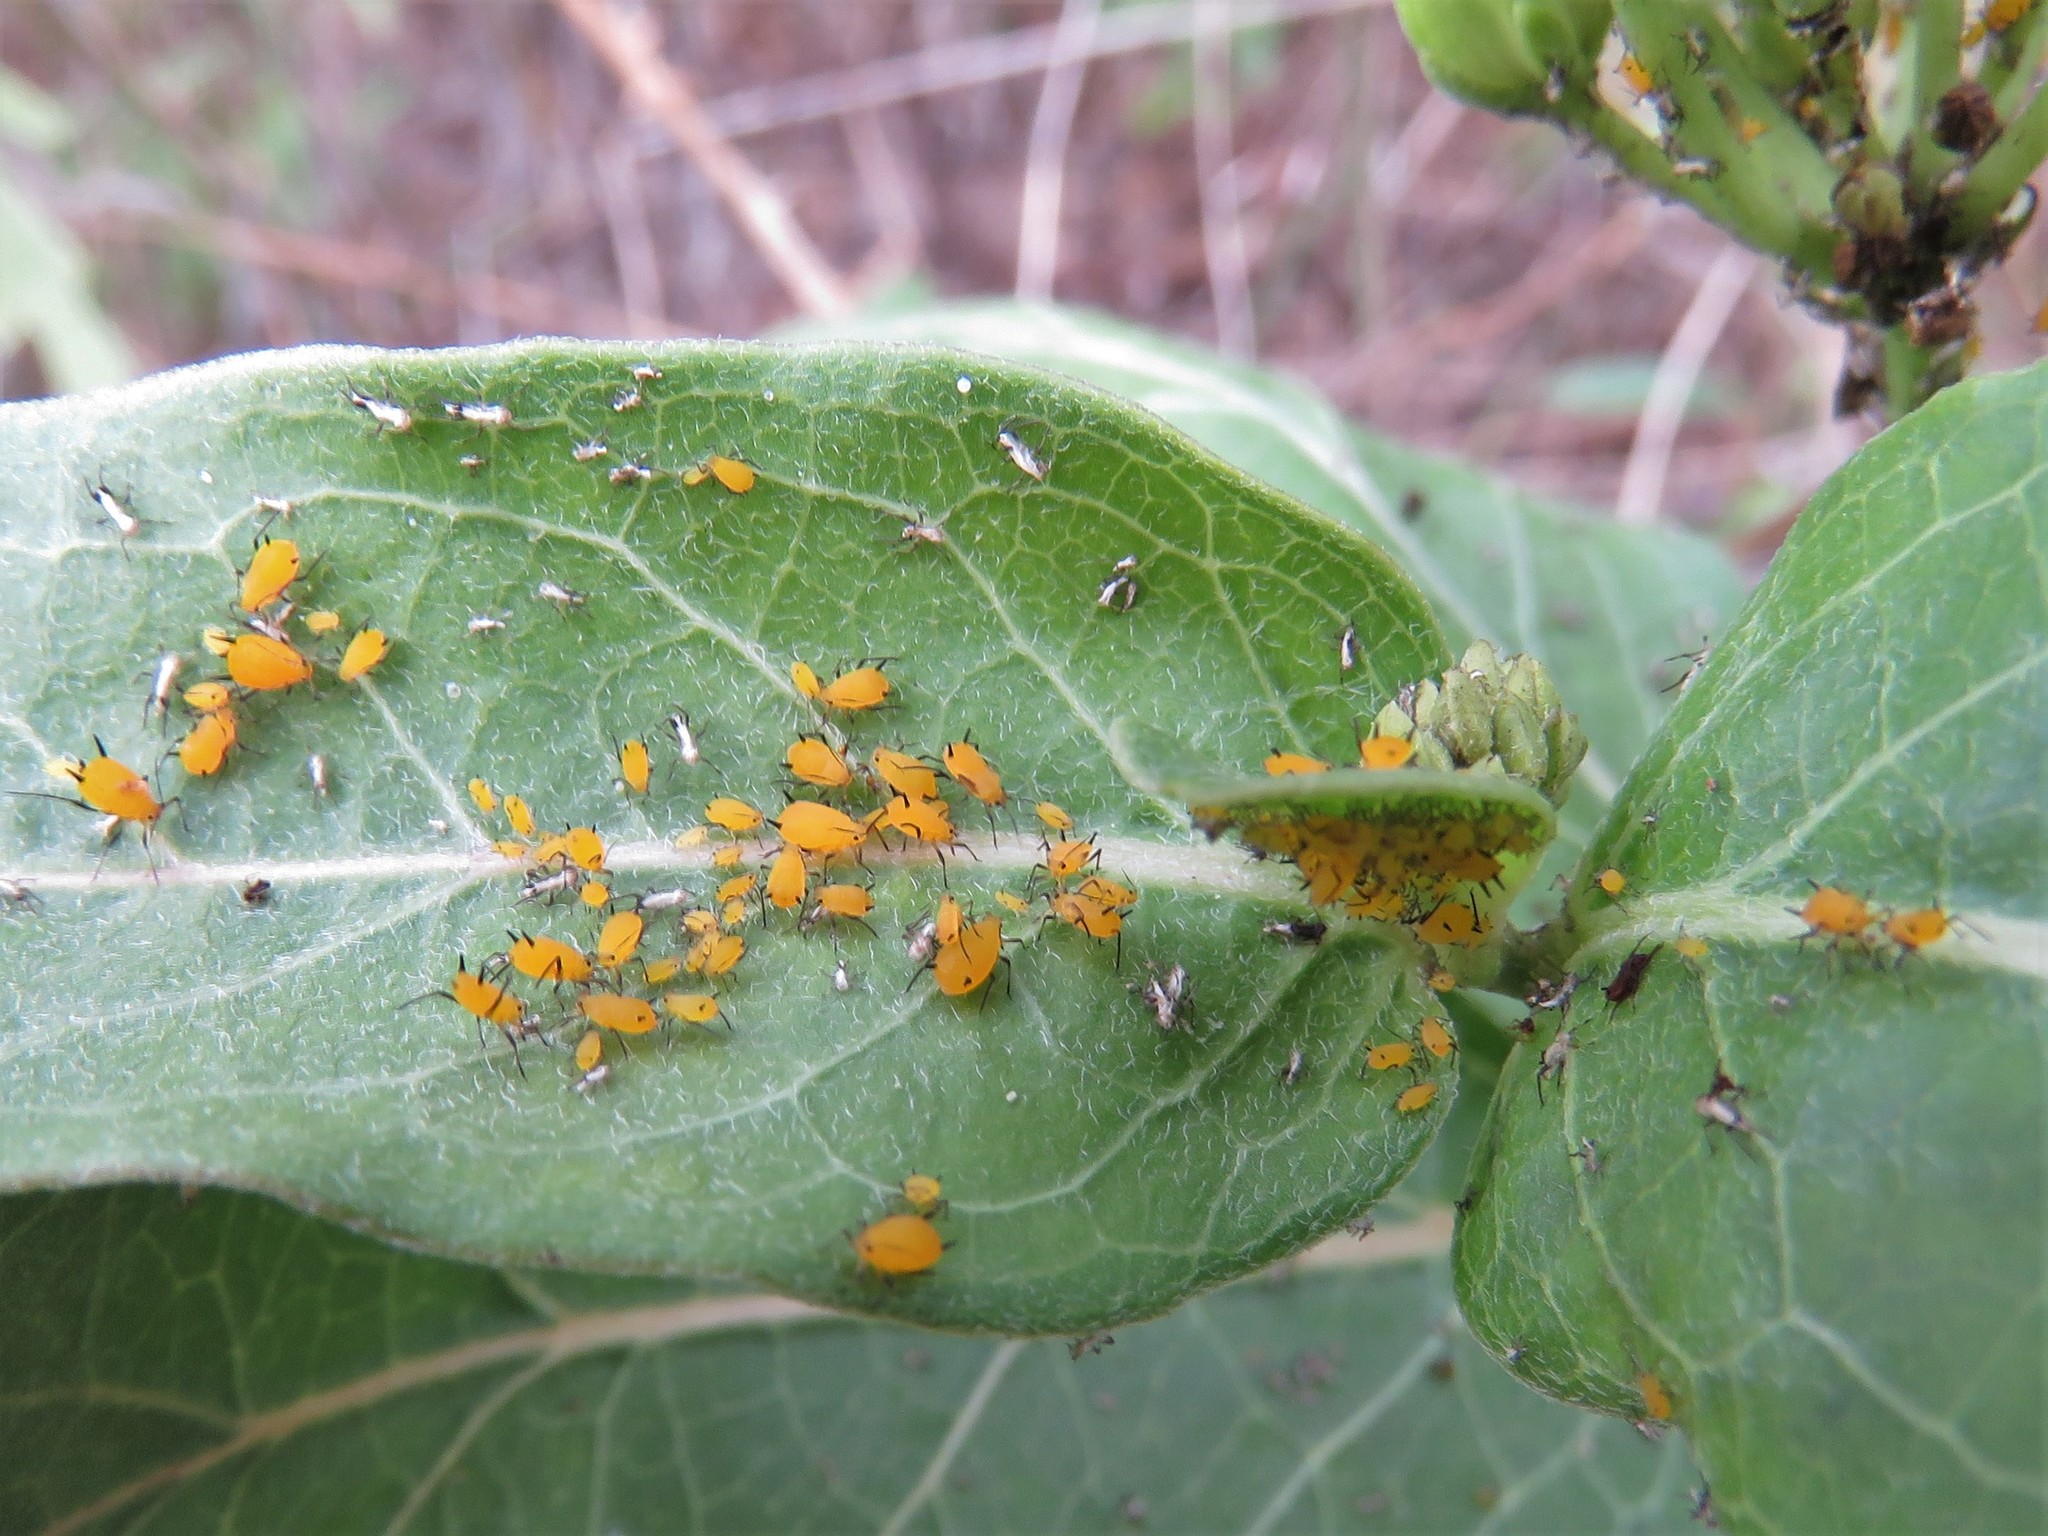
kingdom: Animalia
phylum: Arthropoda
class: Insecta
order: Hemiptera
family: Aphididae
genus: Aphis
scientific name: Aphis nerii
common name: Oleander aphid
